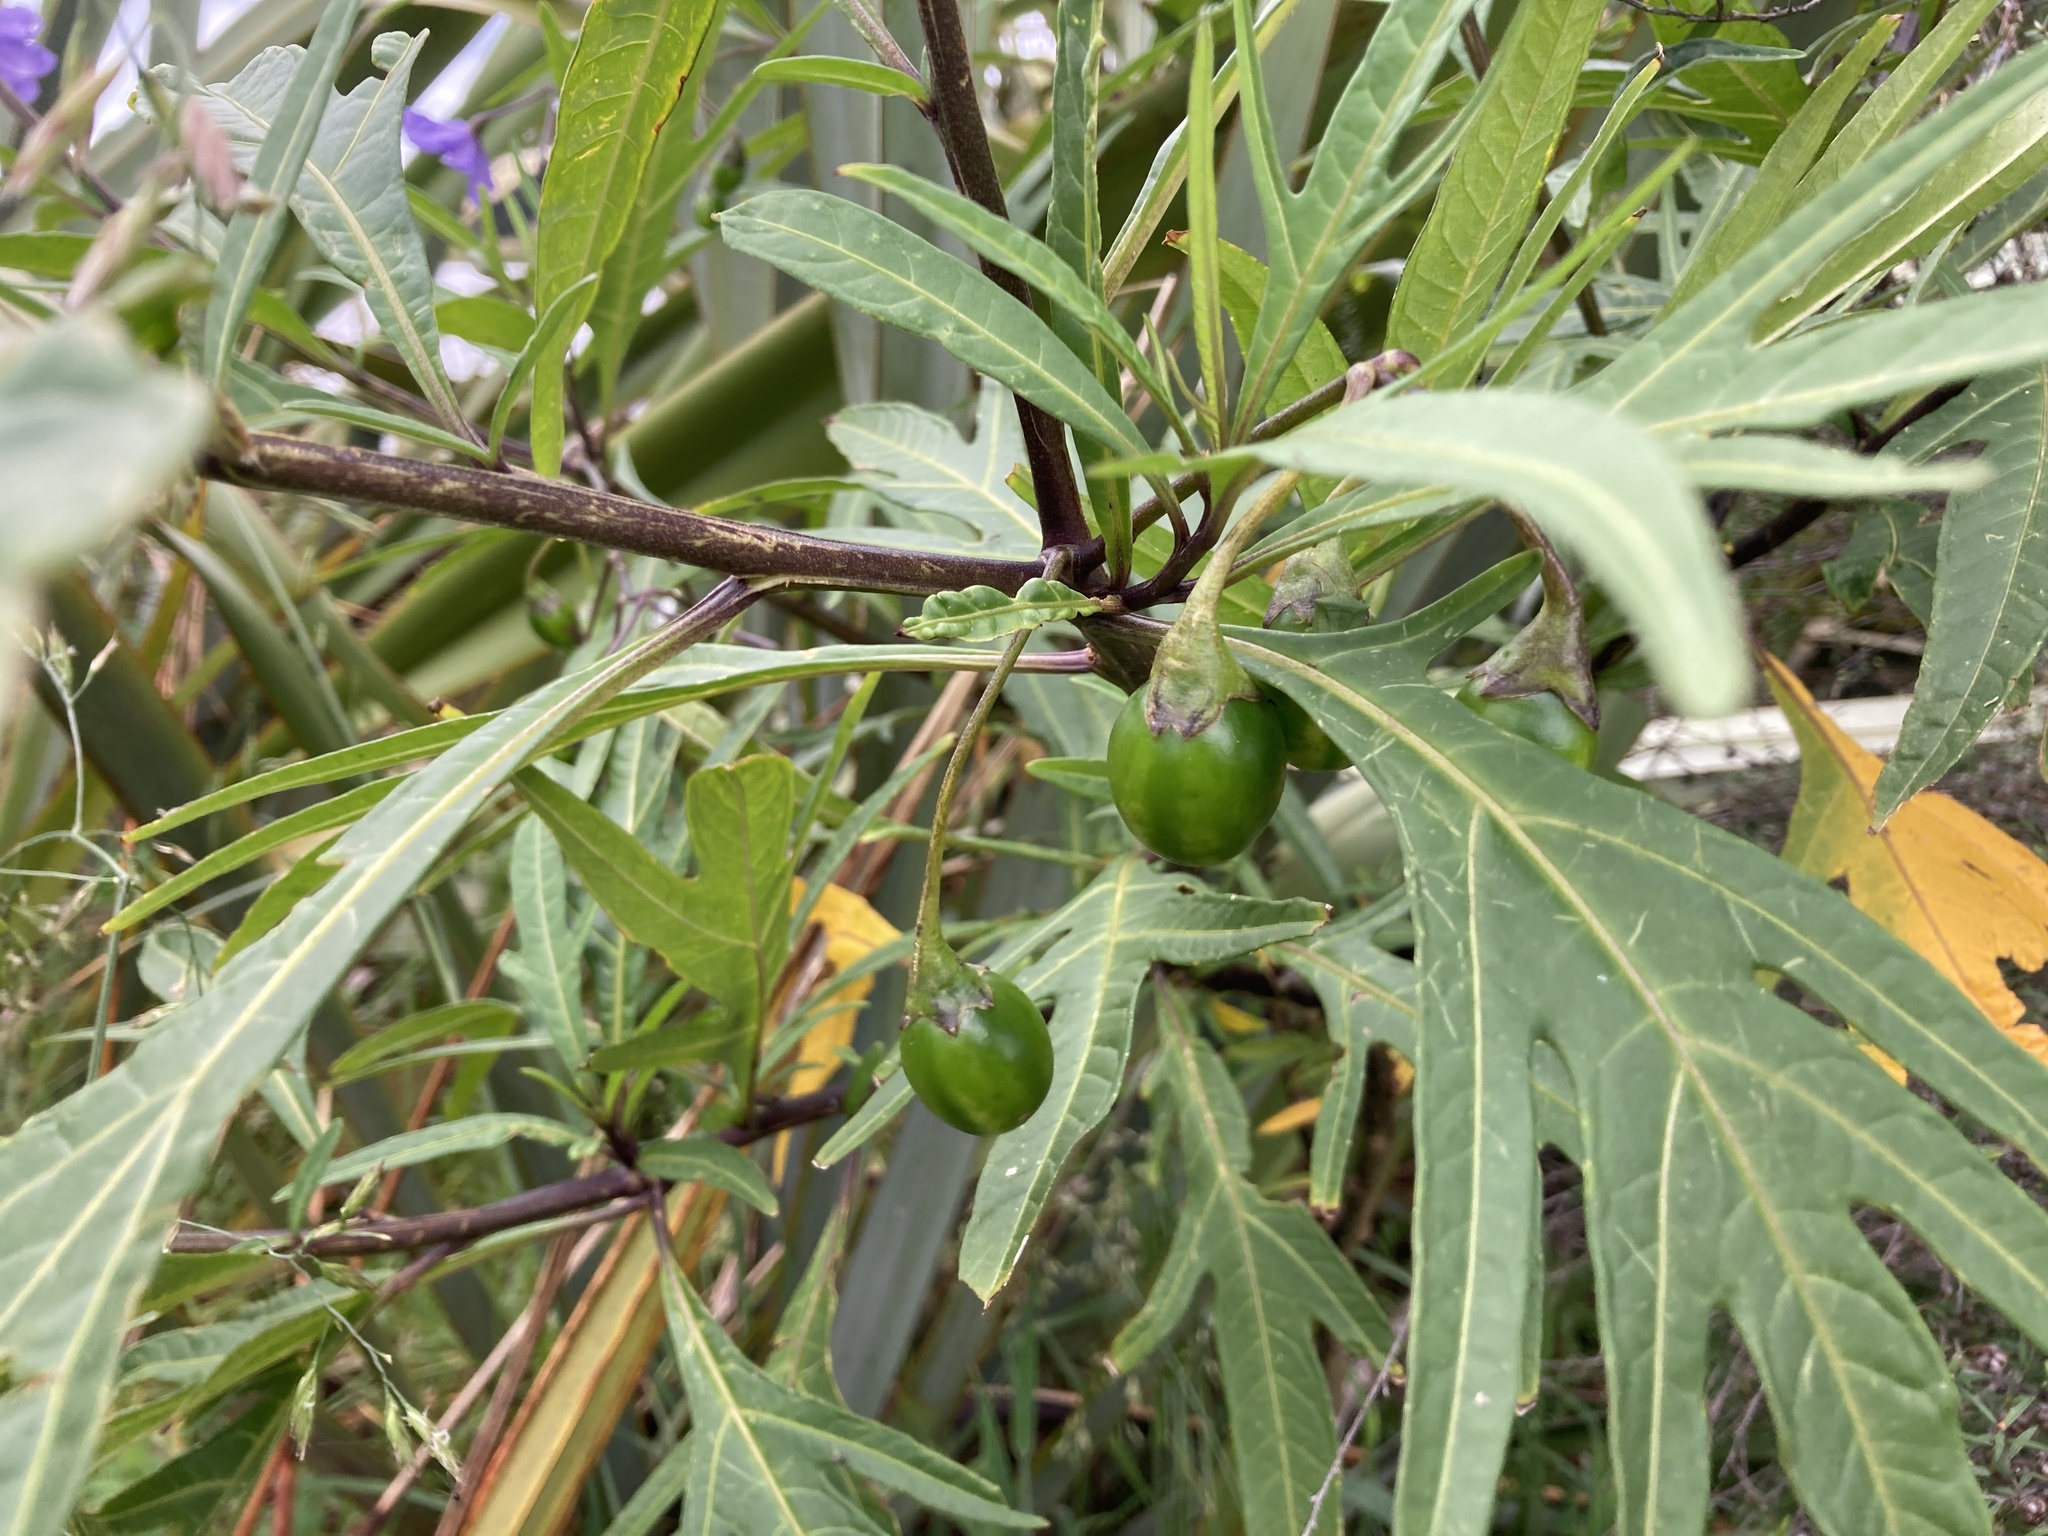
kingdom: Plantae
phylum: Tracheophyta
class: Magnoliopsida
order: Solanales
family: Solanaceae
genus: Solanum
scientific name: Solanum laciniatum
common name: Kangaroo-apple
